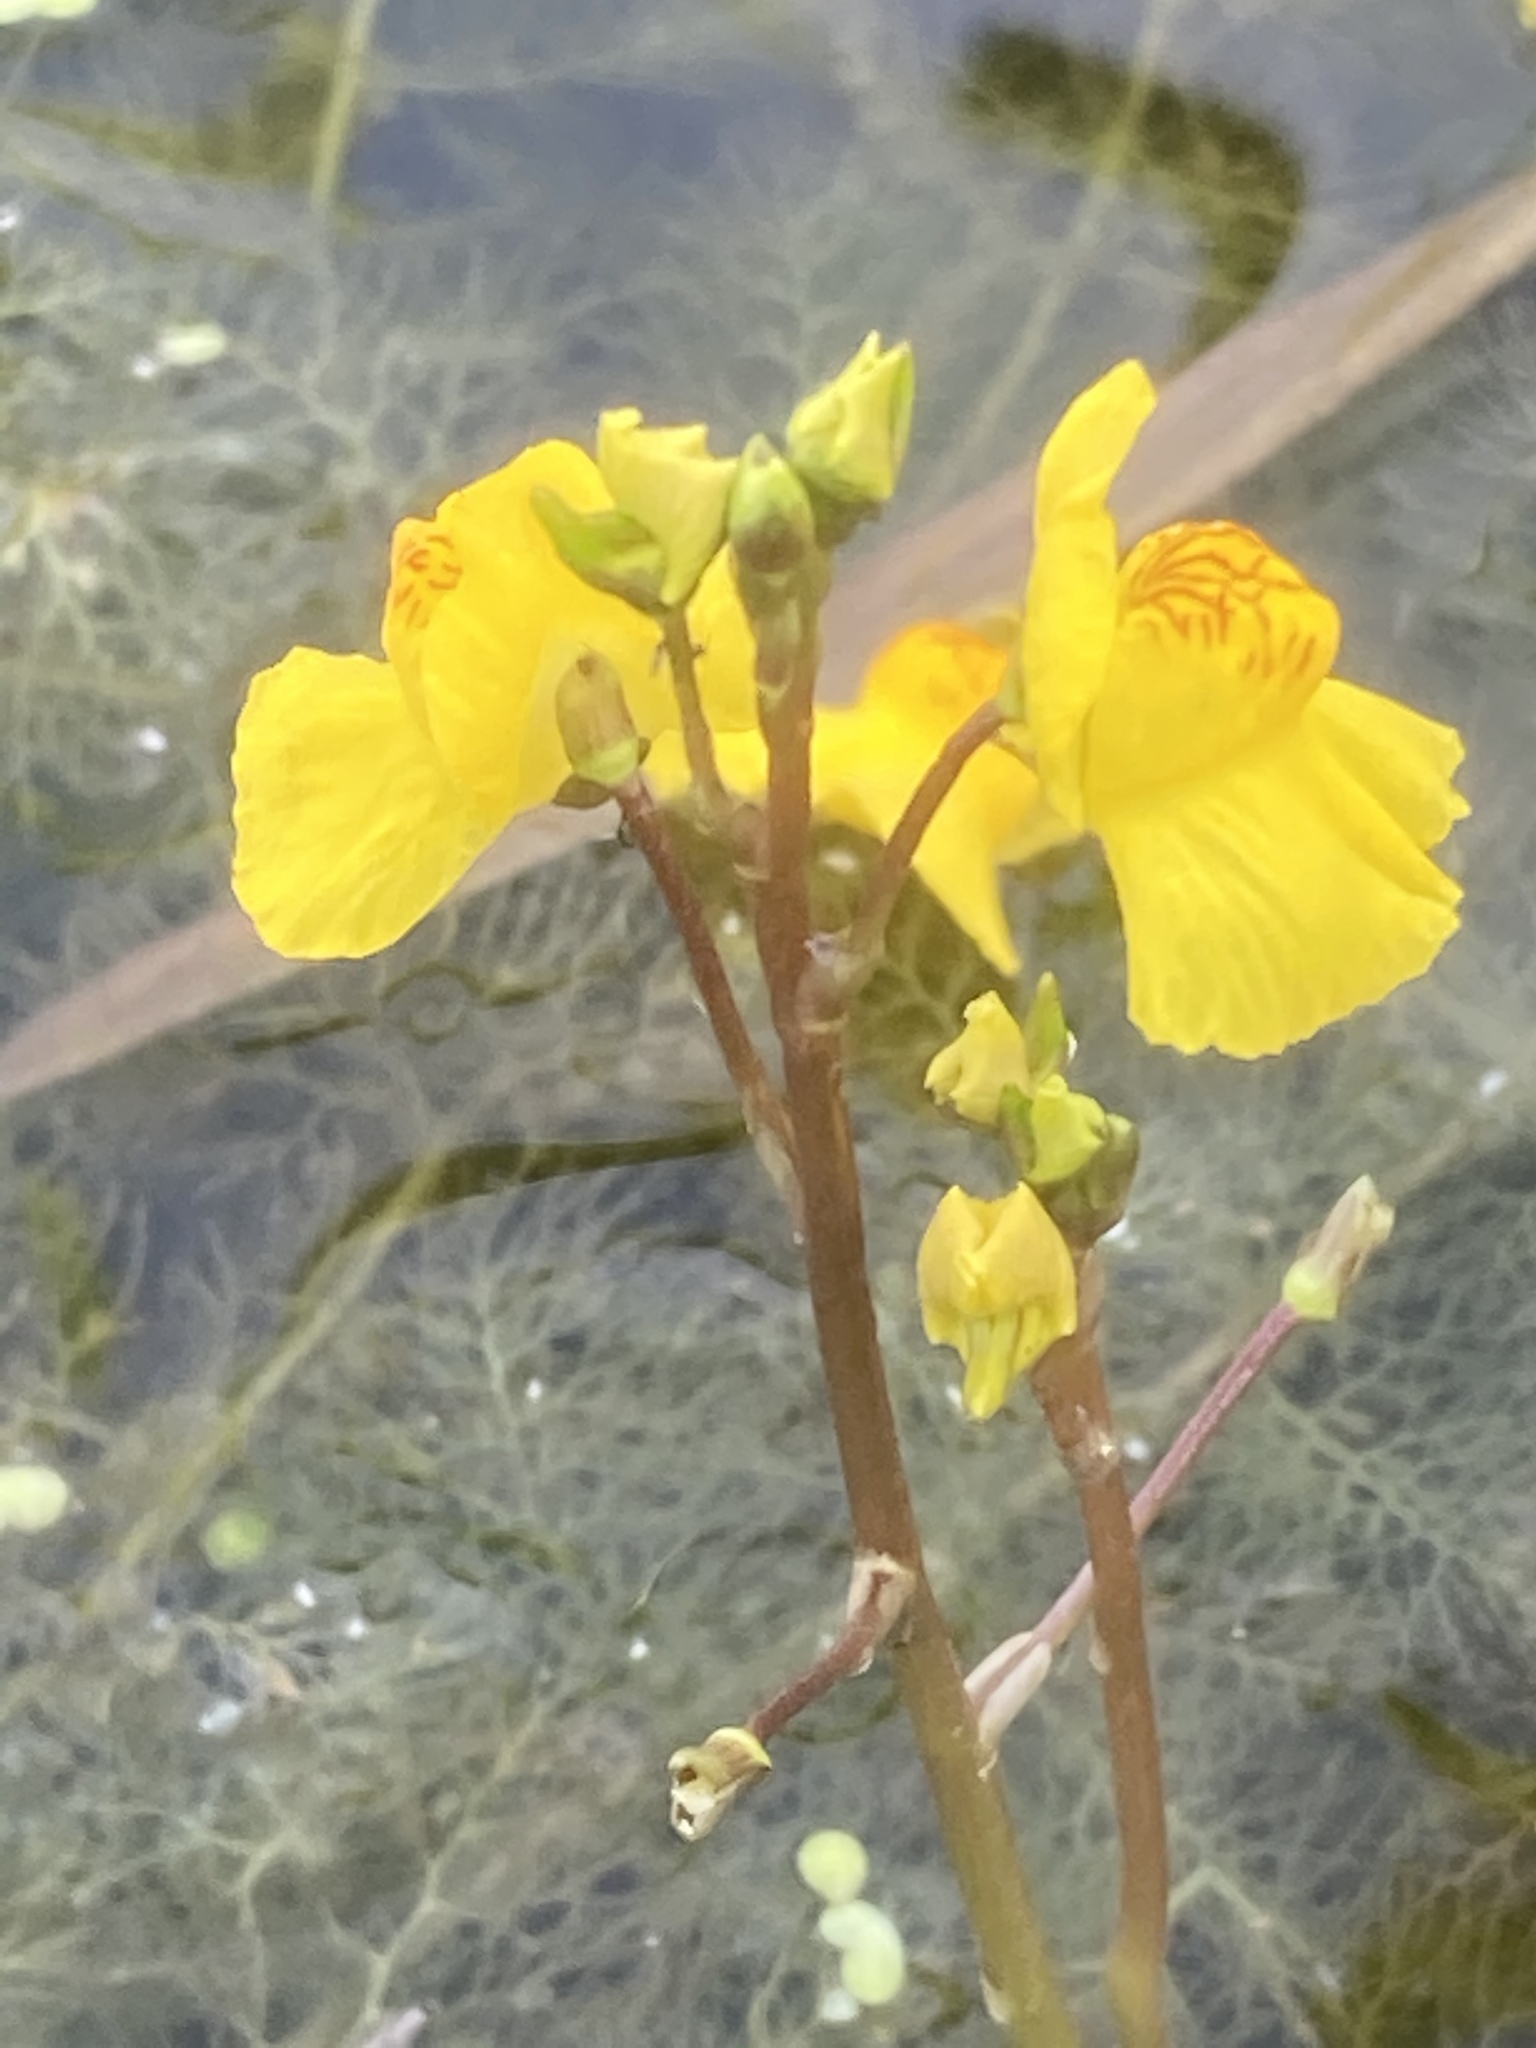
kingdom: Plantae
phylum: Tracheophyta
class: Magnoliopsida
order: Lamiales
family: Lentibulariaceae
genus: Utricularia
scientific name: Utricularia australis
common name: Bladderwort
